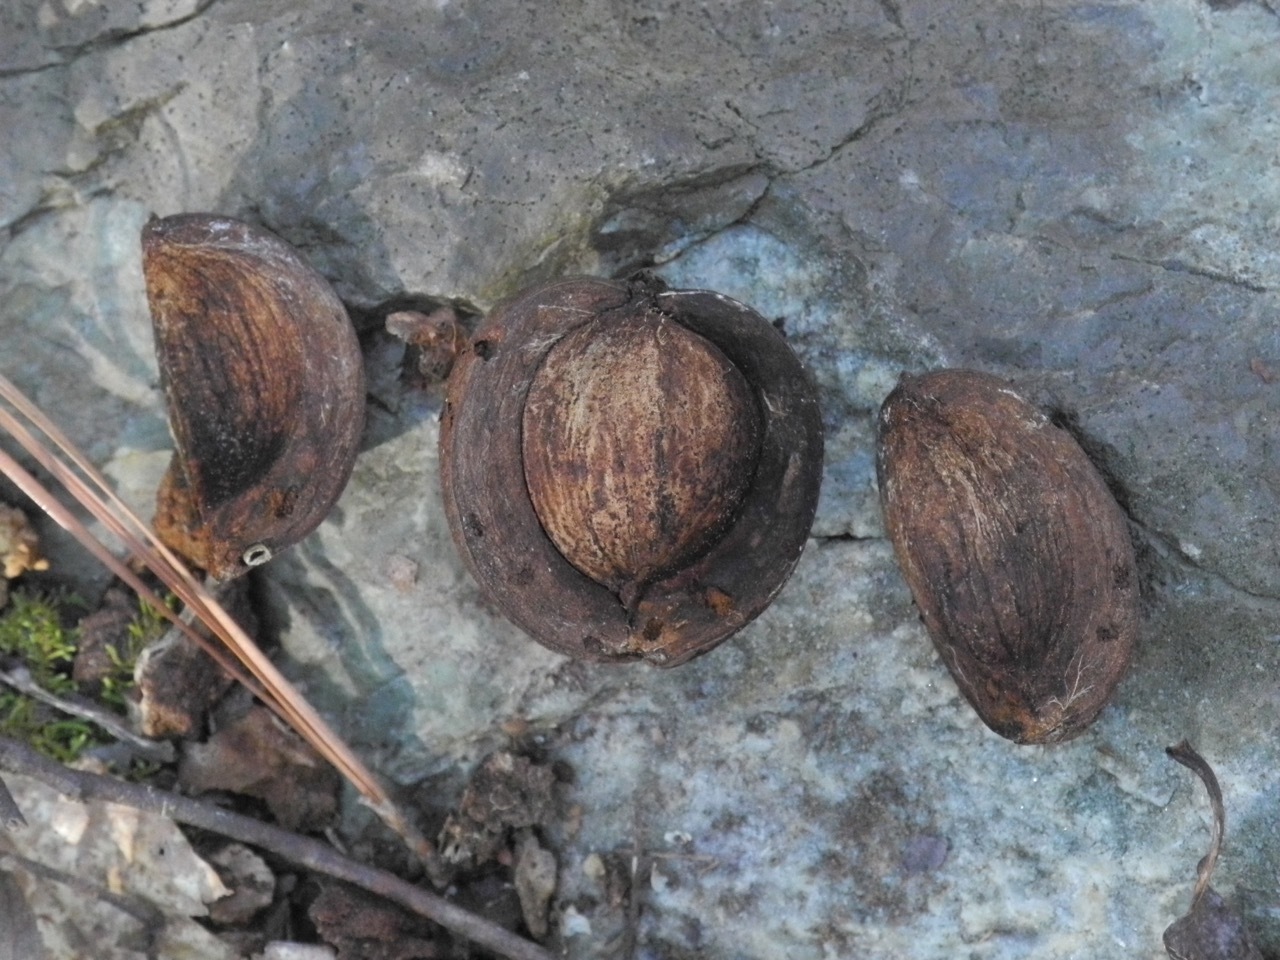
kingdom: Plantae
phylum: Tracheophyta
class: Magnoliopsida
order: Fagales
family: Juglandaceae
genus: Carya
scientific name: Carya glabra
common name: Pignut hickory
